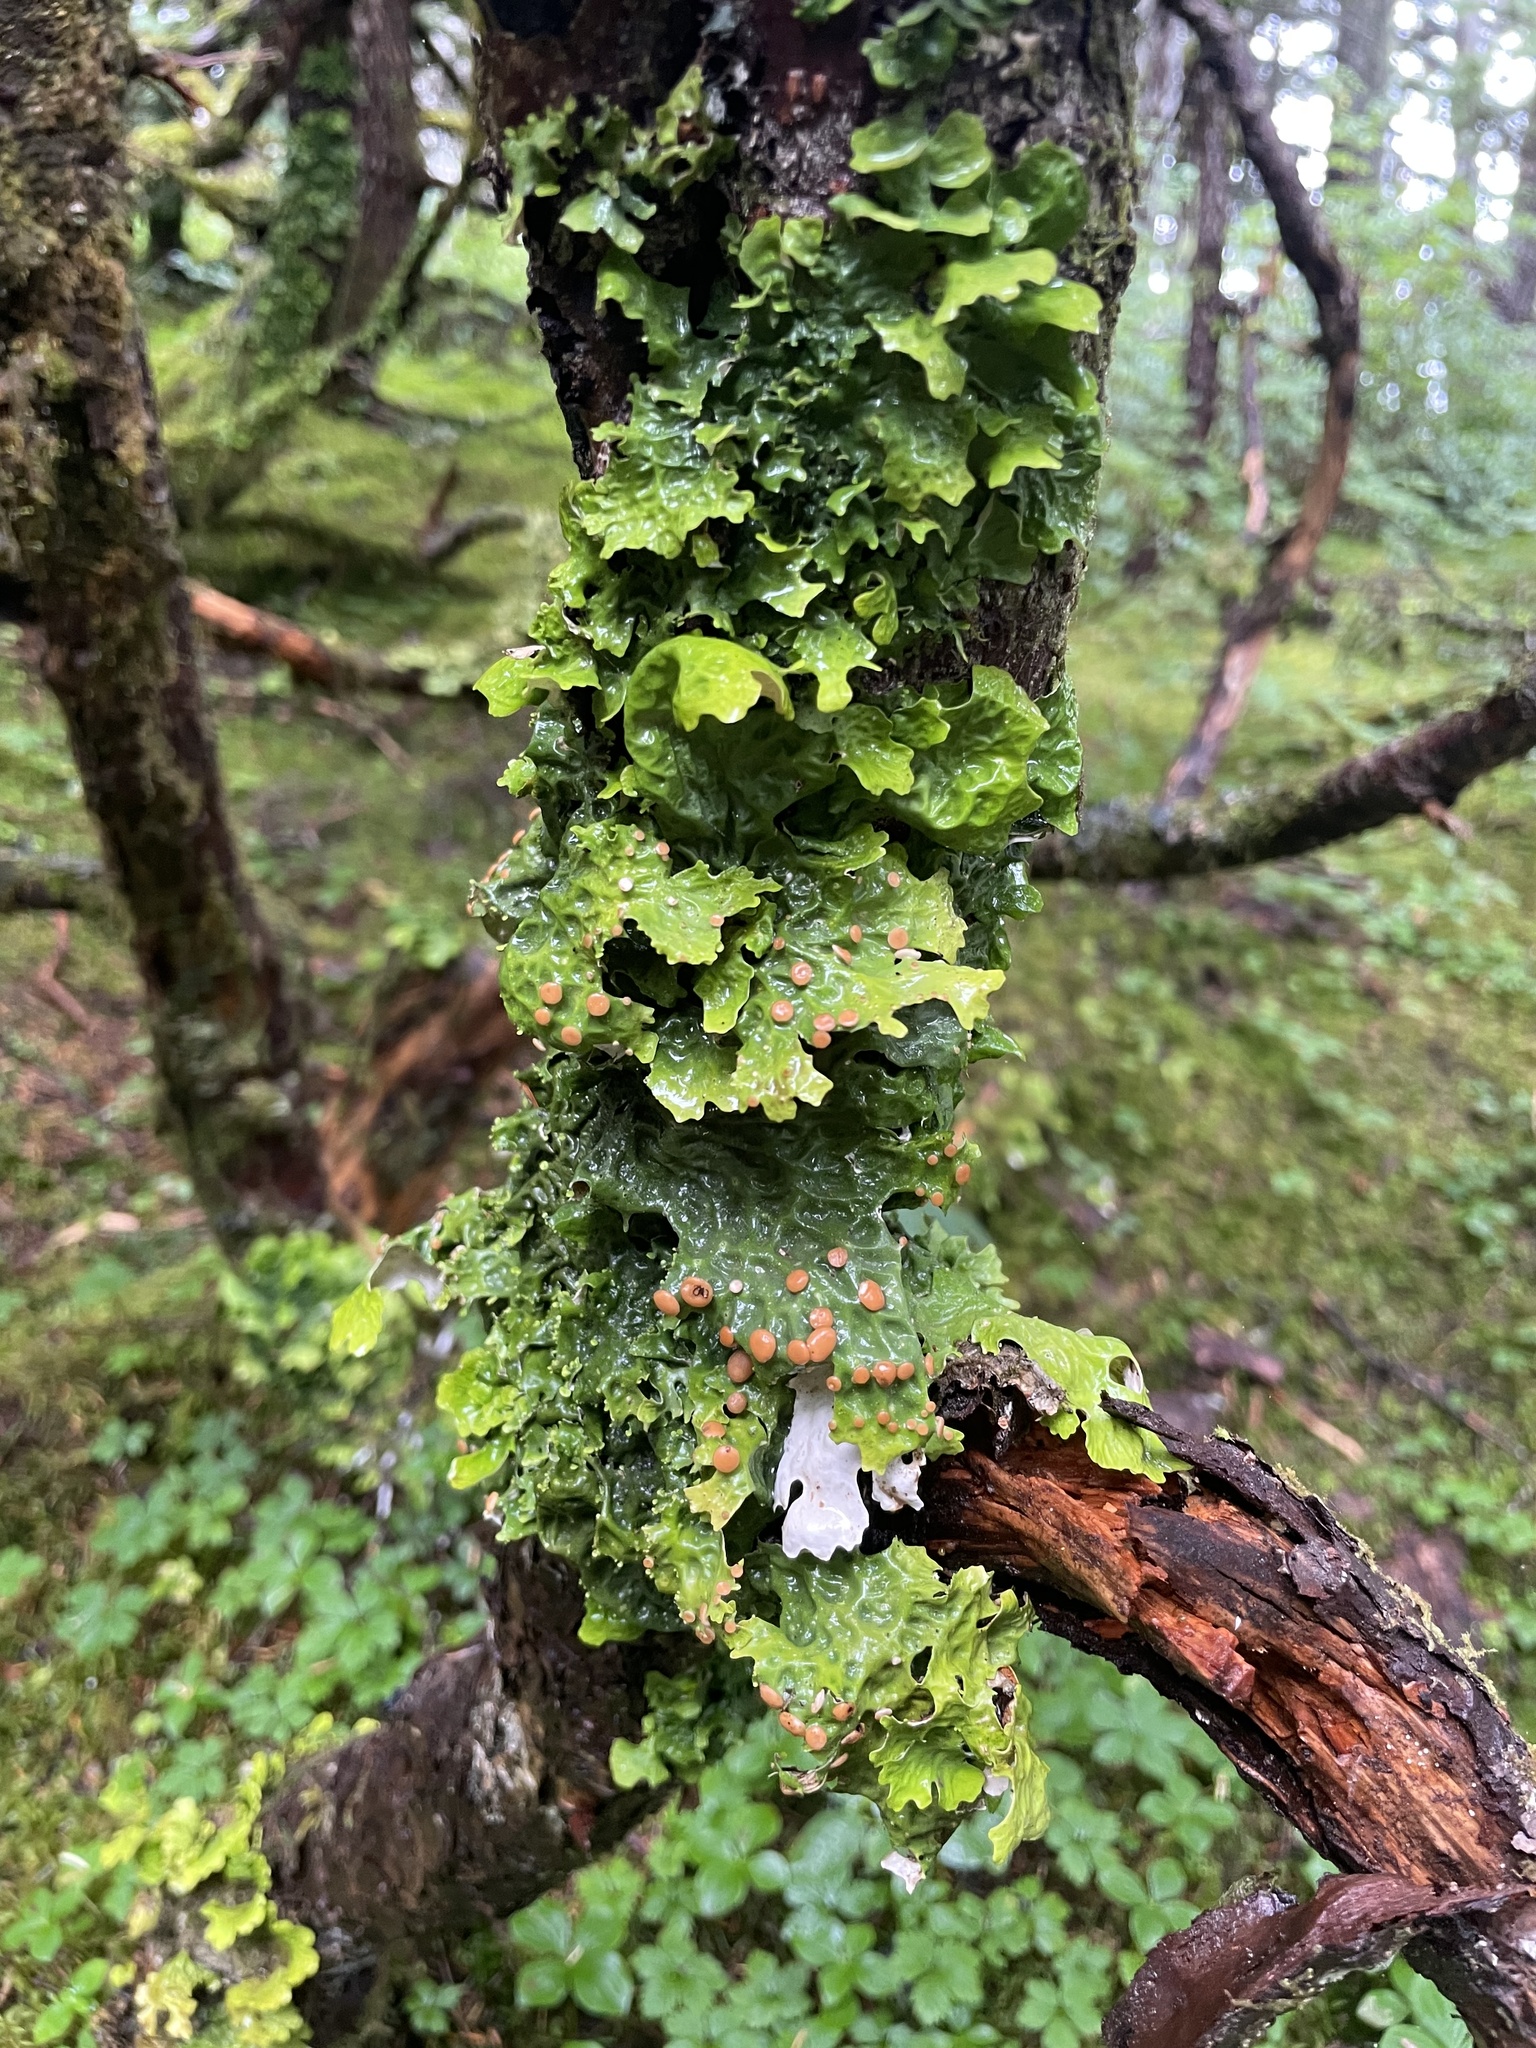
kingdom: Fungi
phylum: Ascomycota
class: Lecanoromycetes
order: Peltigerales
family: Lobariaceae
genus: Lobaria
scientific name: Lobaria linita
